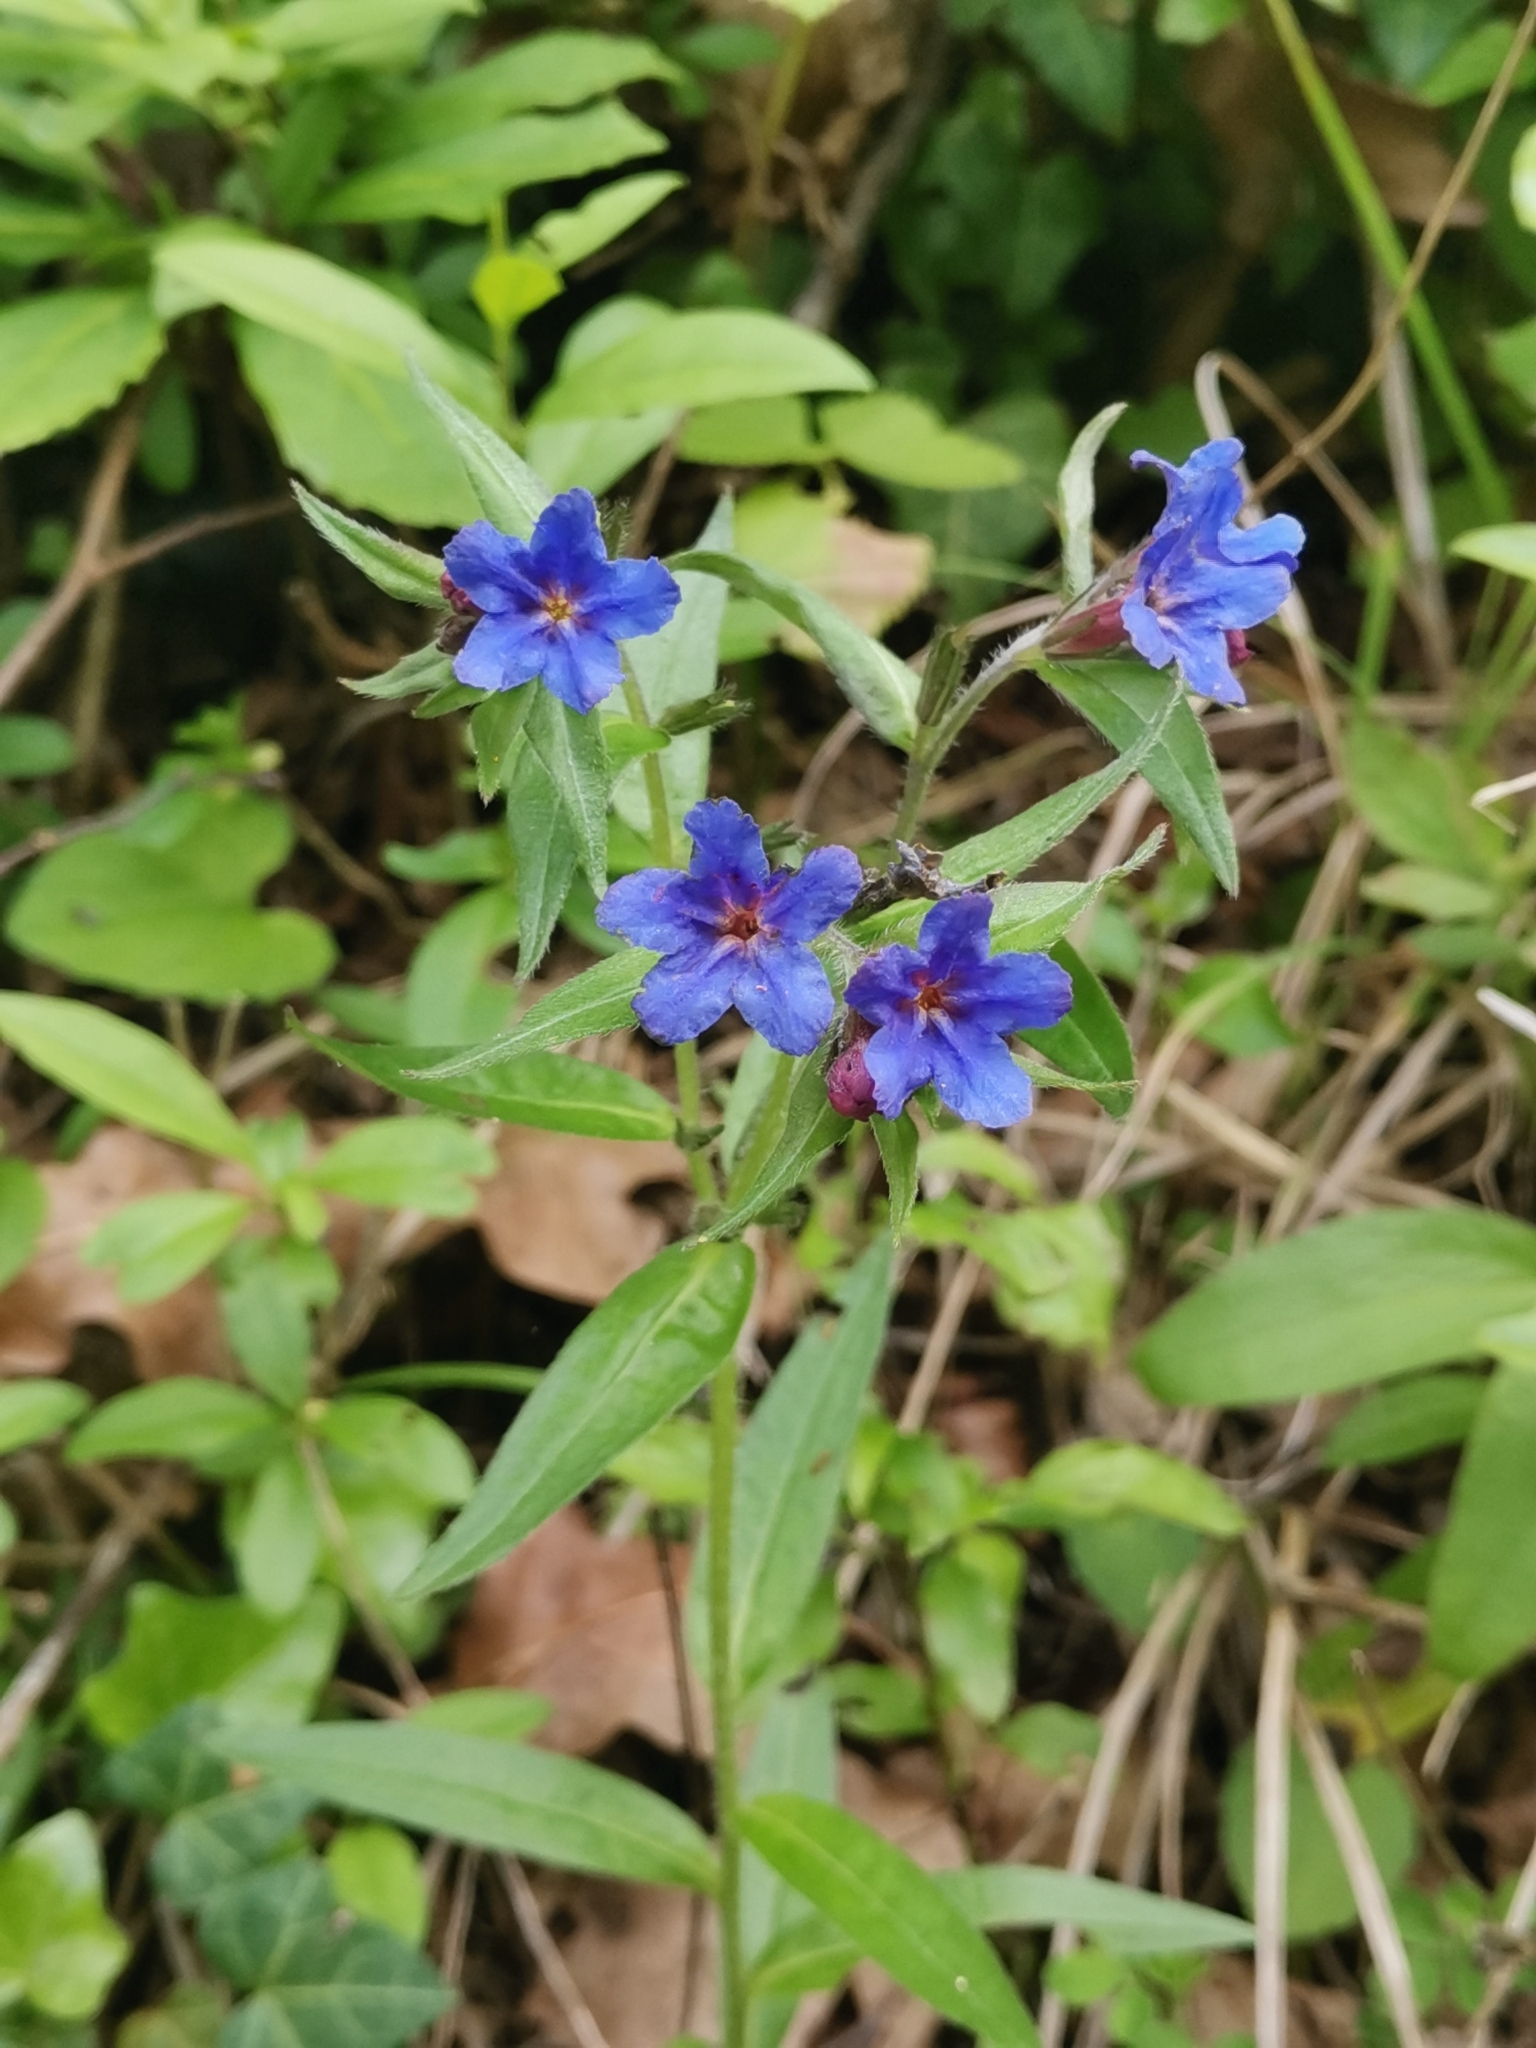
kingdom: Plantae
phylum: Tracheophyta
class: Magnoliopsida
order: Boraginales
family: Boraginaceae
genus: Aegonychon
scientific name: Aegonychon purpurocaeruleum
